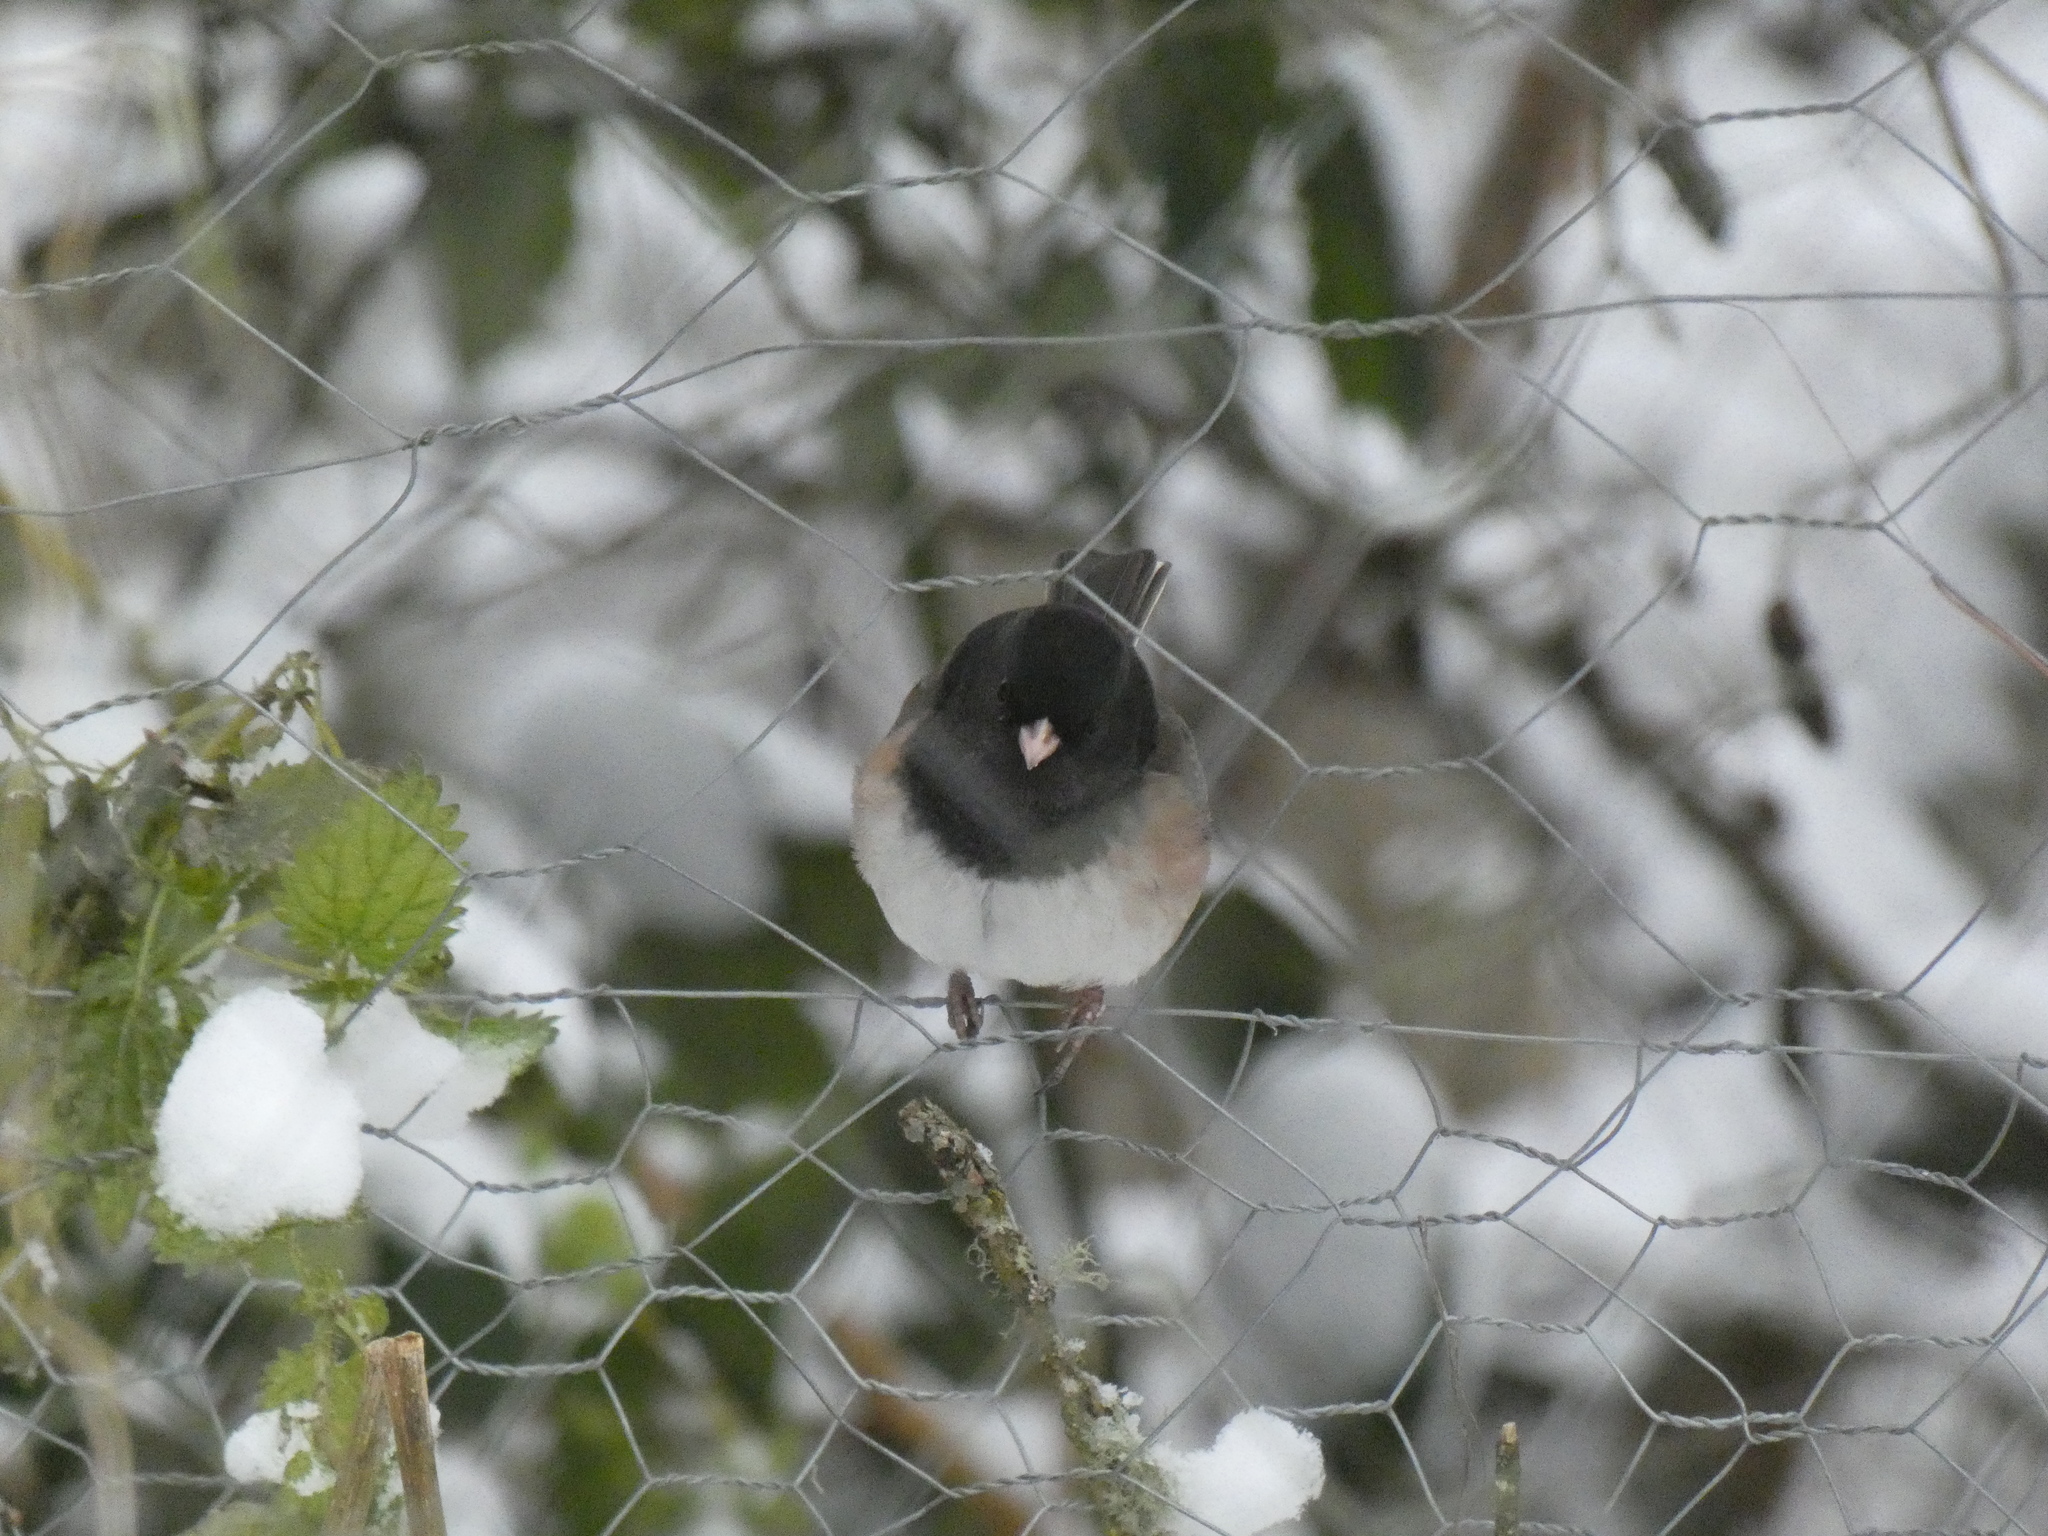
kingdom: Animalia
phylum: Chordata
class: Aves
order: Passeriformes
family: Passerellidae
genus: Junco
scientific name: Junco hyemalis
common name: Dark-eyed junco
